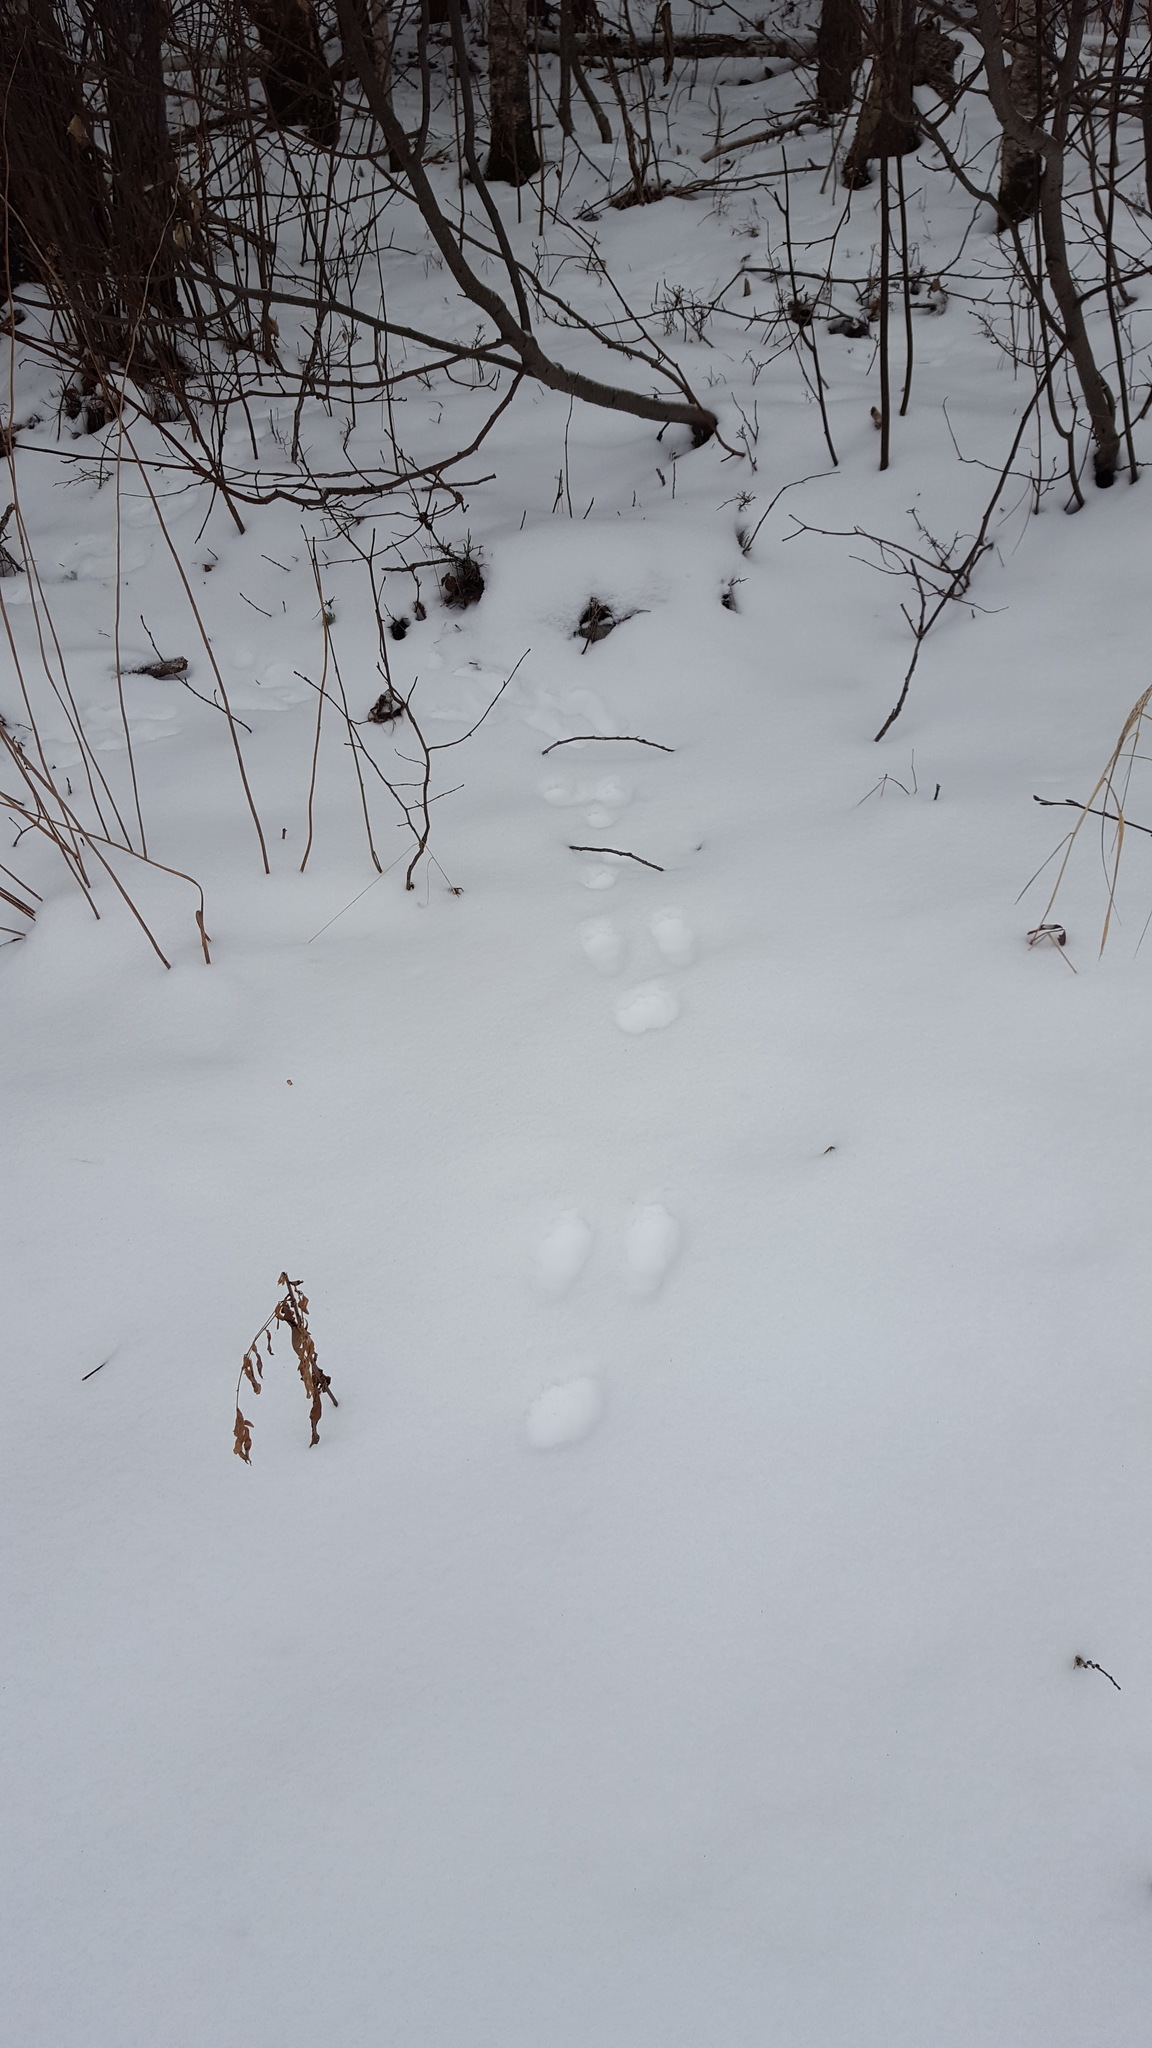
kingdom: Animalia
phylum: Chordata
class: Mammalia
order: Lagomorpha
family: Leporidae
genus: Lepus
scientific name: Lepus americanus
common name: Snowshoe hare
